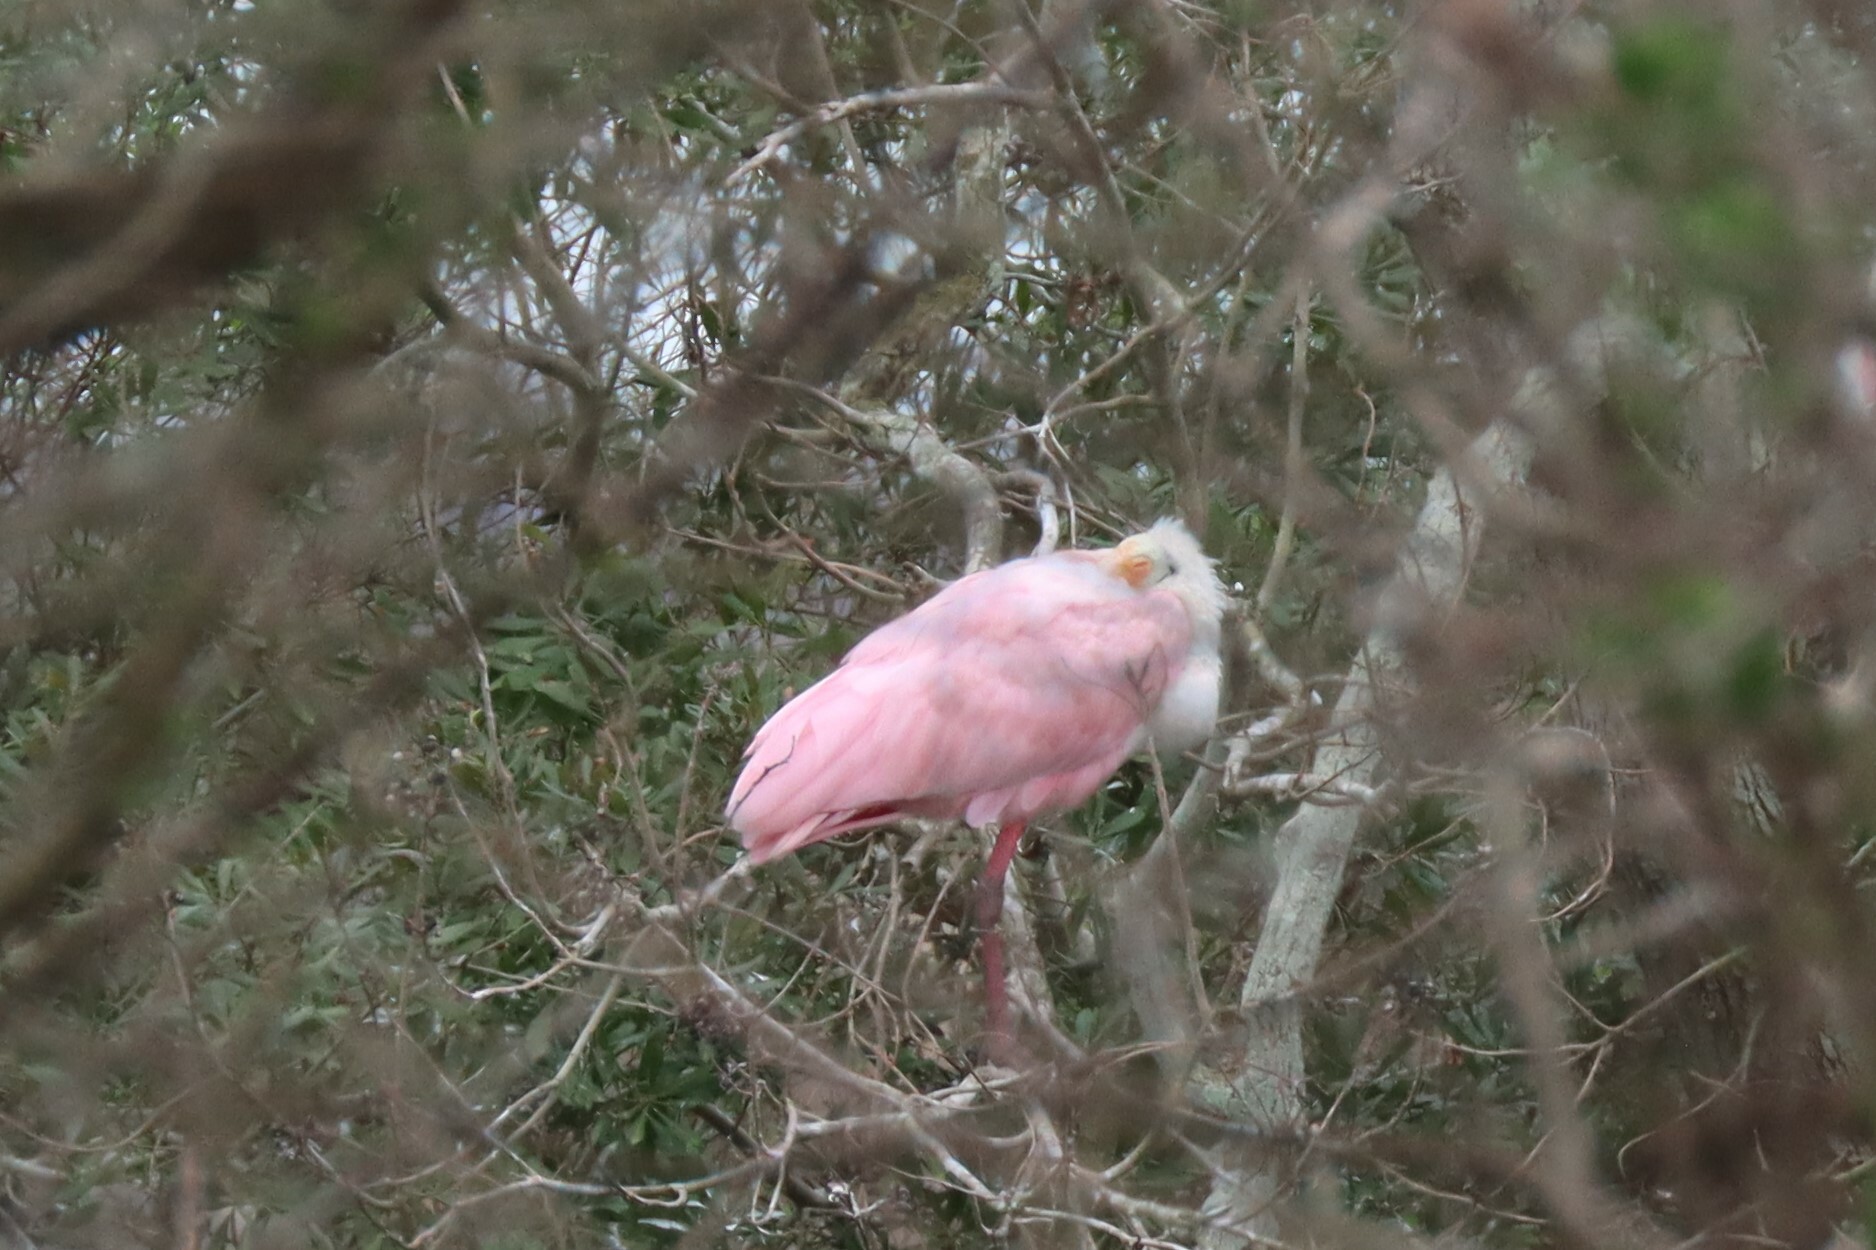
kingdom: Animalia
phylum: Chordata
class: Aves
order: Pelecaniformes
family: Threskiornithidae
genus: Platalea
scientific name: Platalea ajaja
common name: Roseate spoonbill
